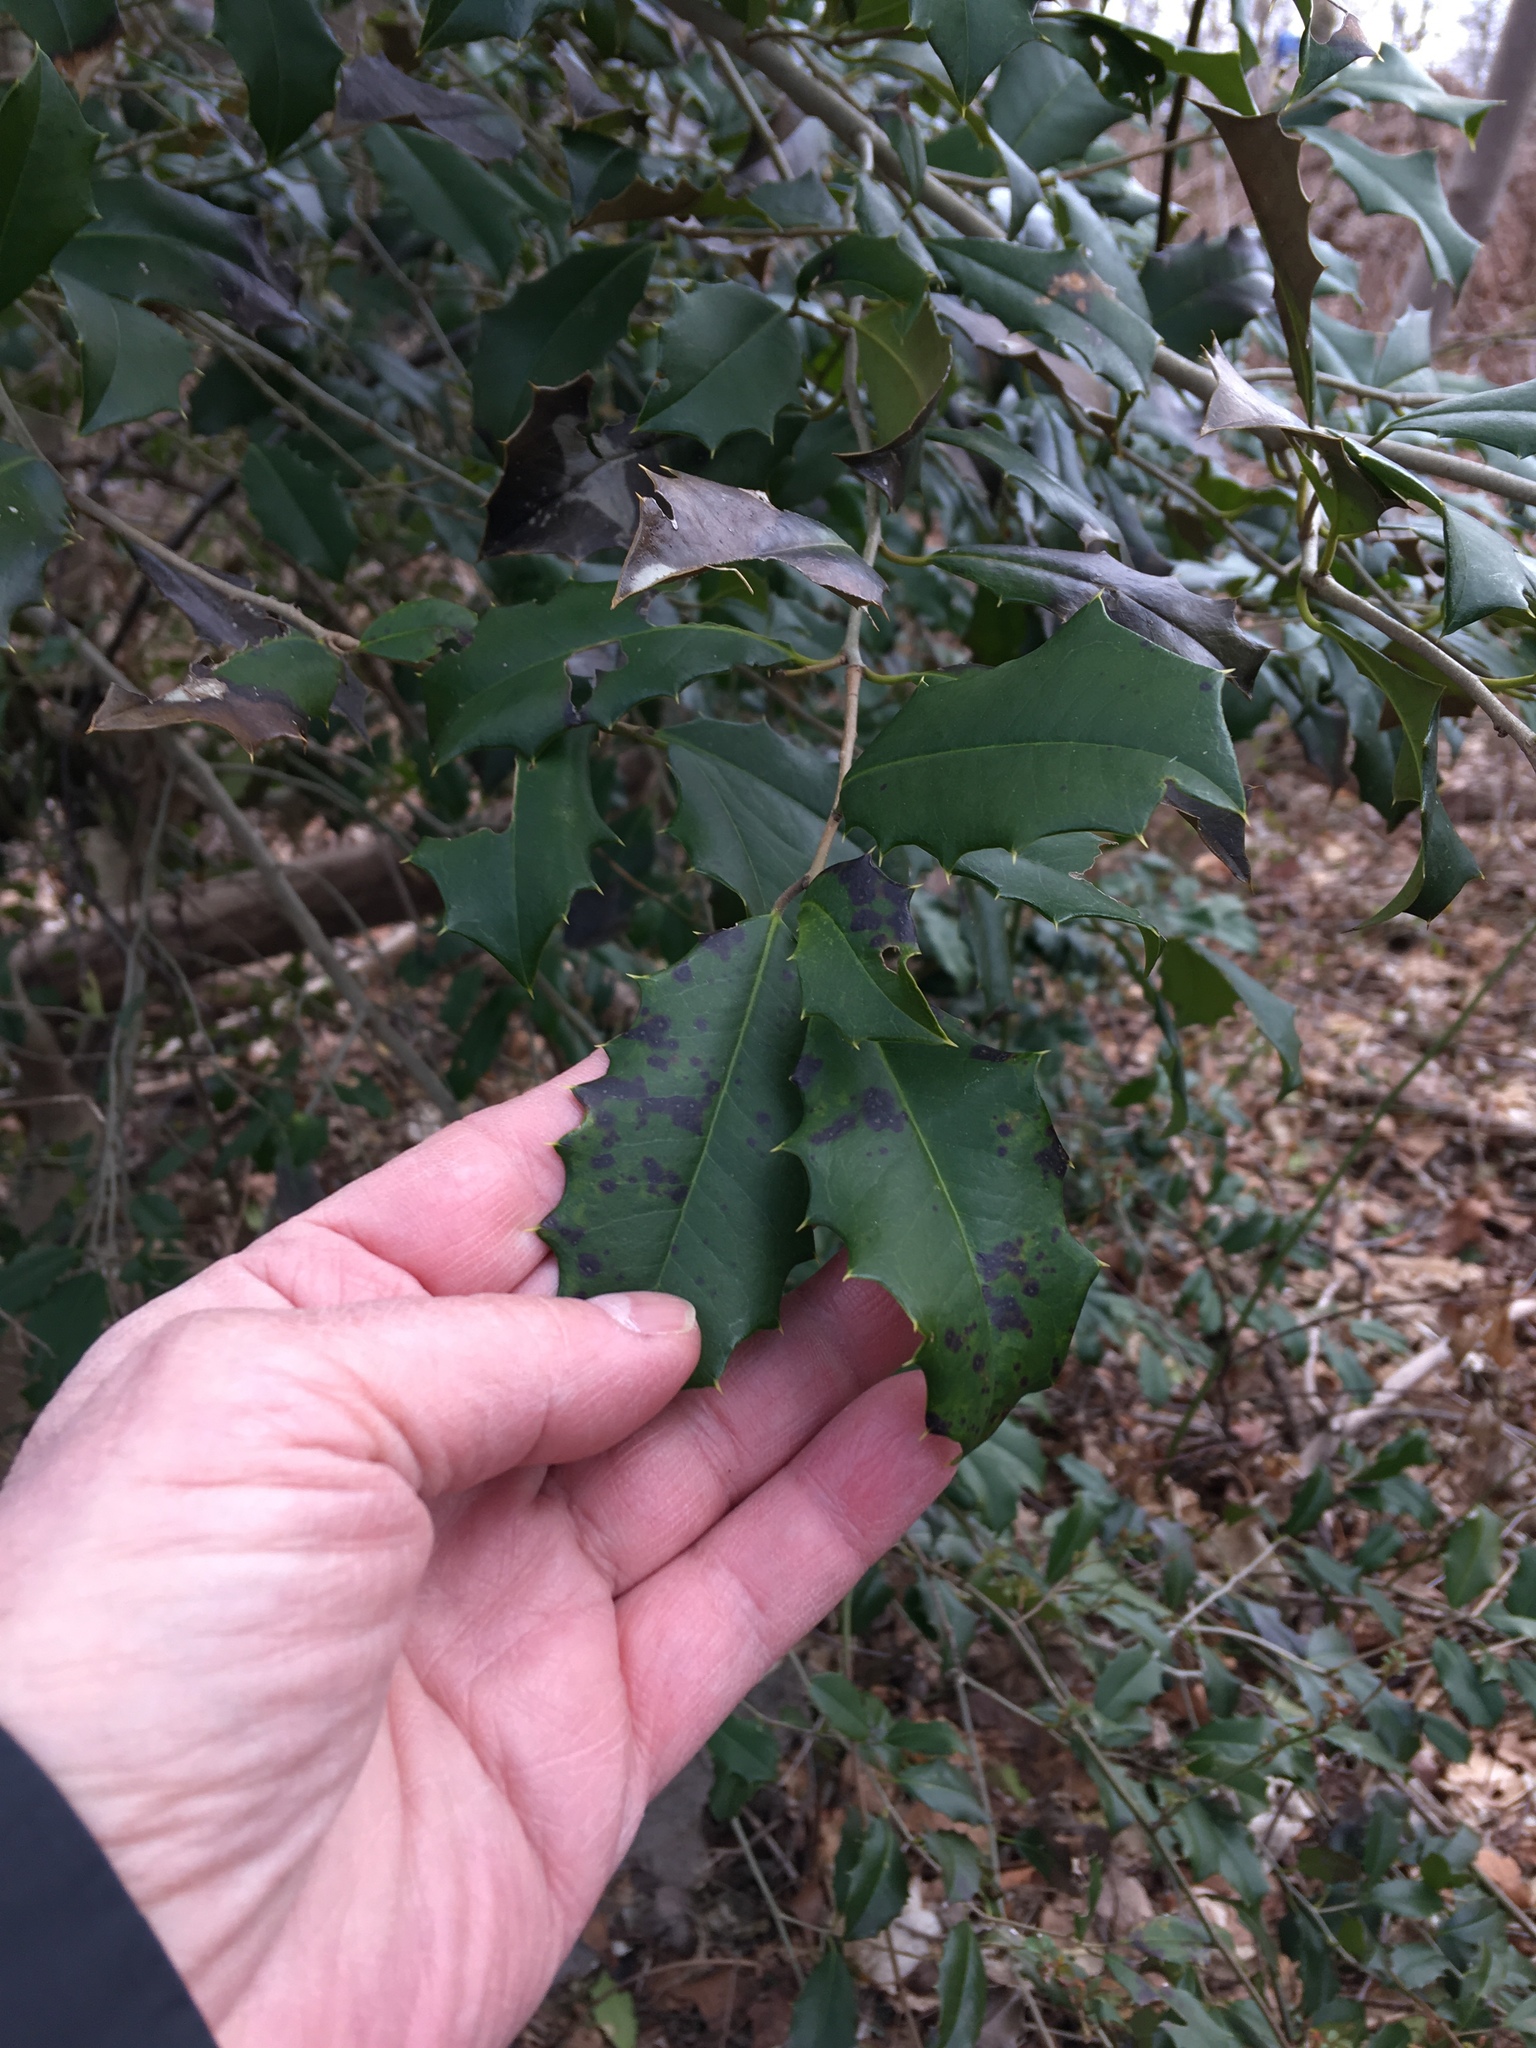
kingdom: Plantae
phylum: Tracheophyta
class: Magnoliopsida
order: Aquifoliales
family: Aquifoliaceae
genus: Ilex
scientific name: Ilex opaca
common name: American holly
